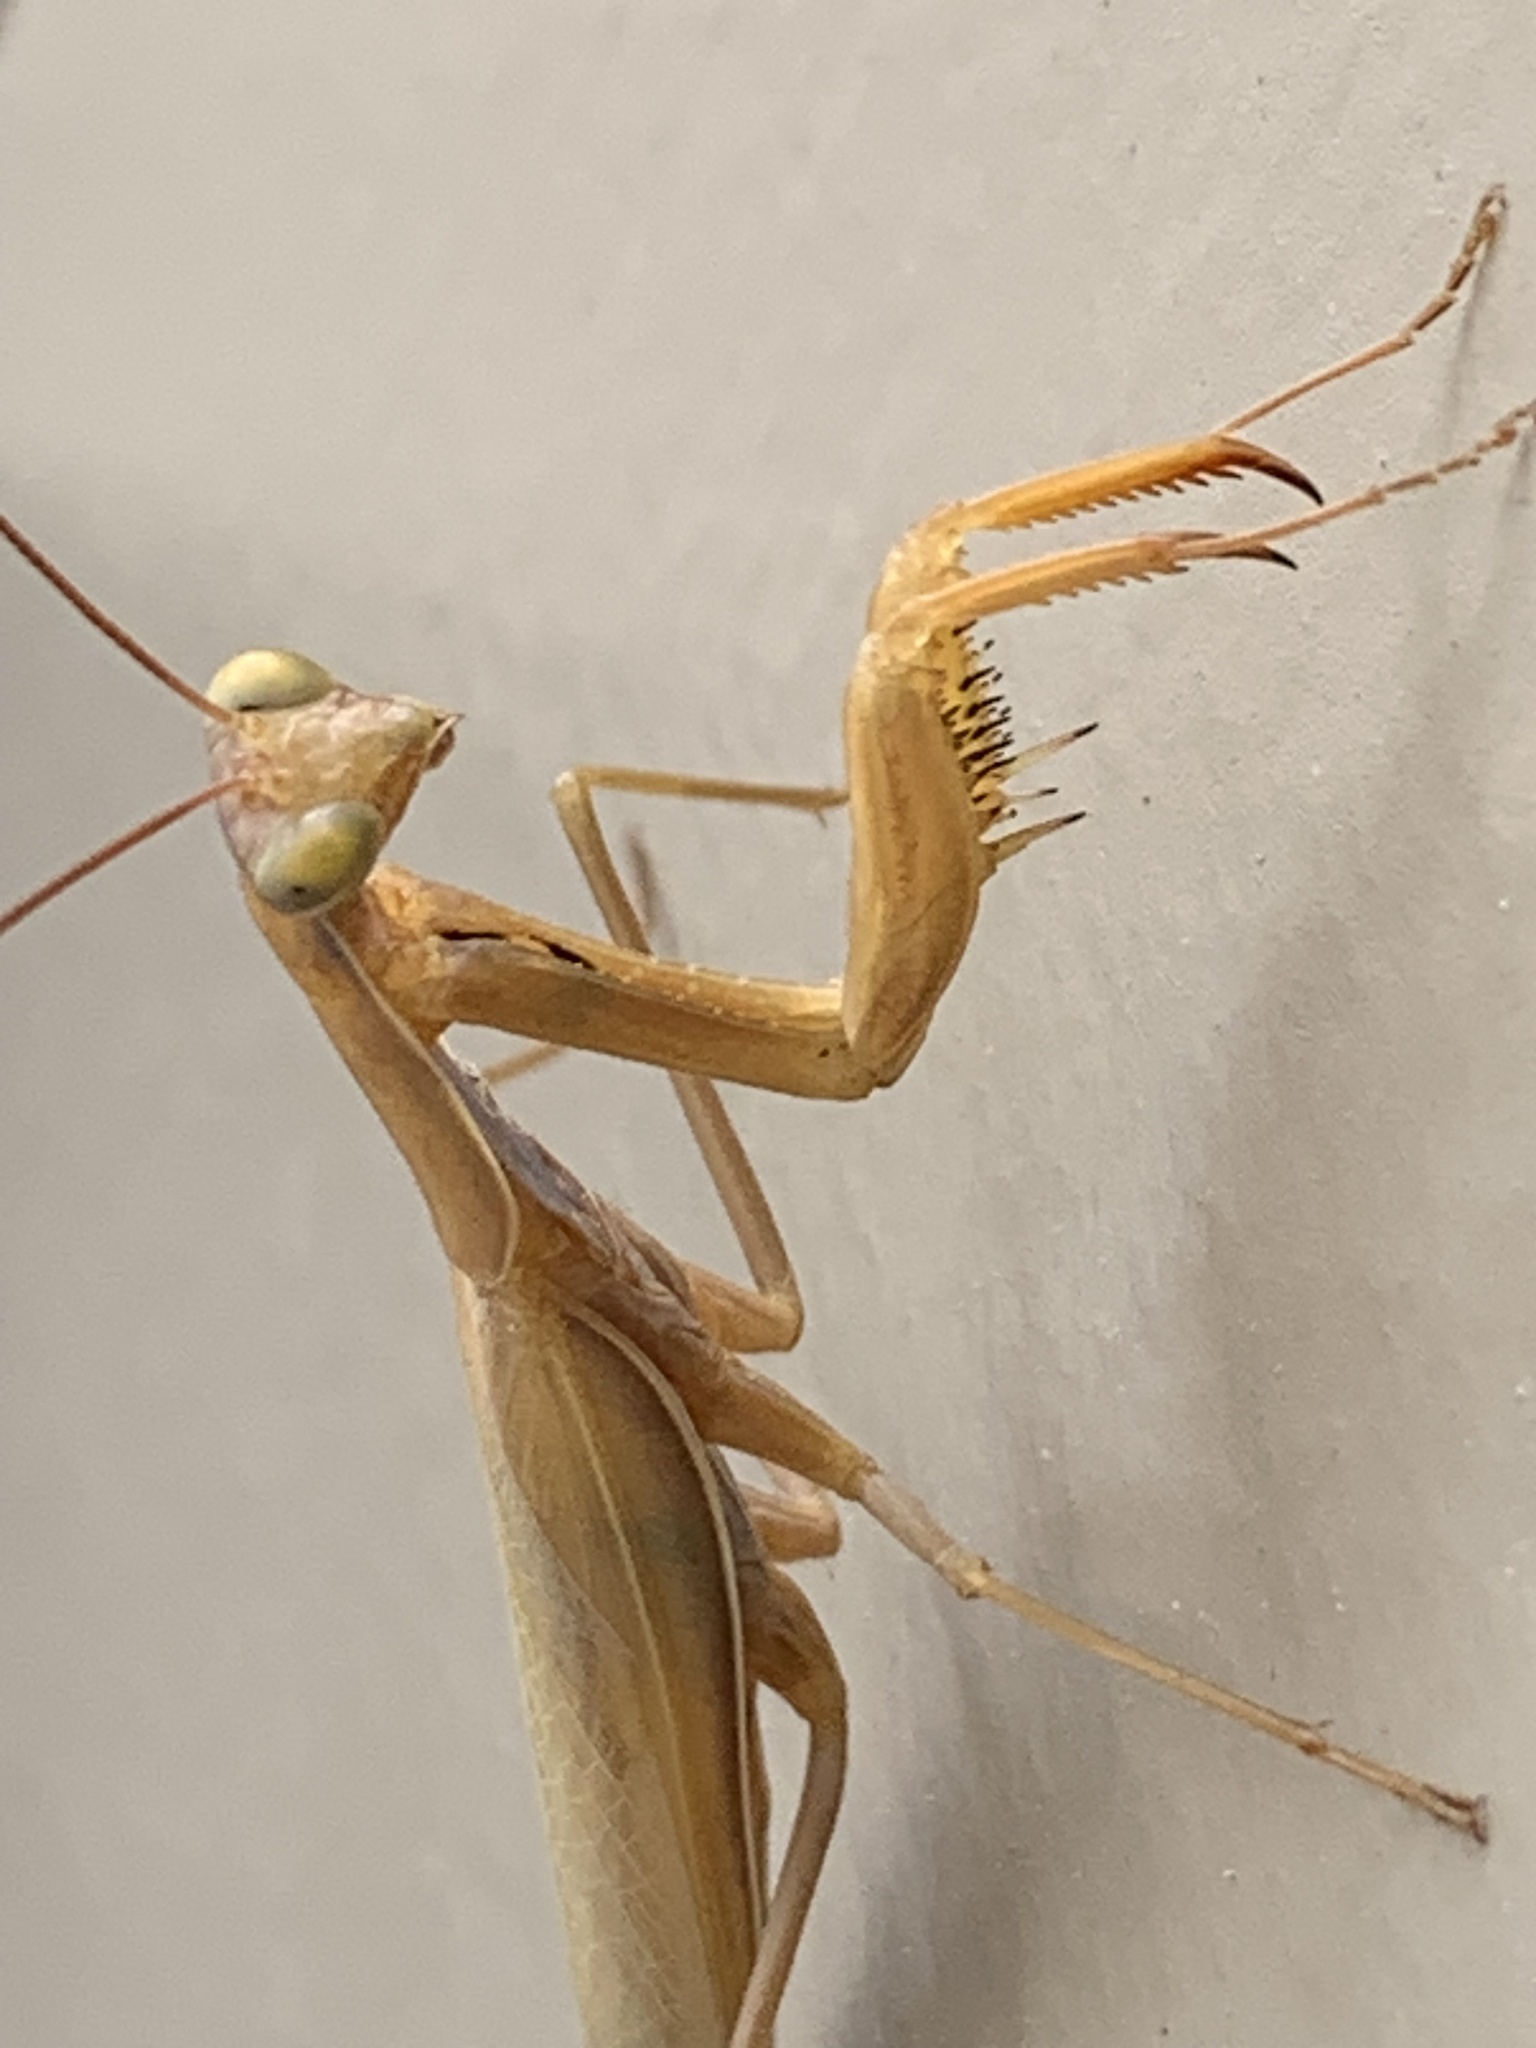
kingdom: Animalia
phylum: Arthropoda
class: Insecta
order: Mantodea
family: Mantidae
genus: Mantis
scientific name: Mantis religiosa
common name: Praying mantis
